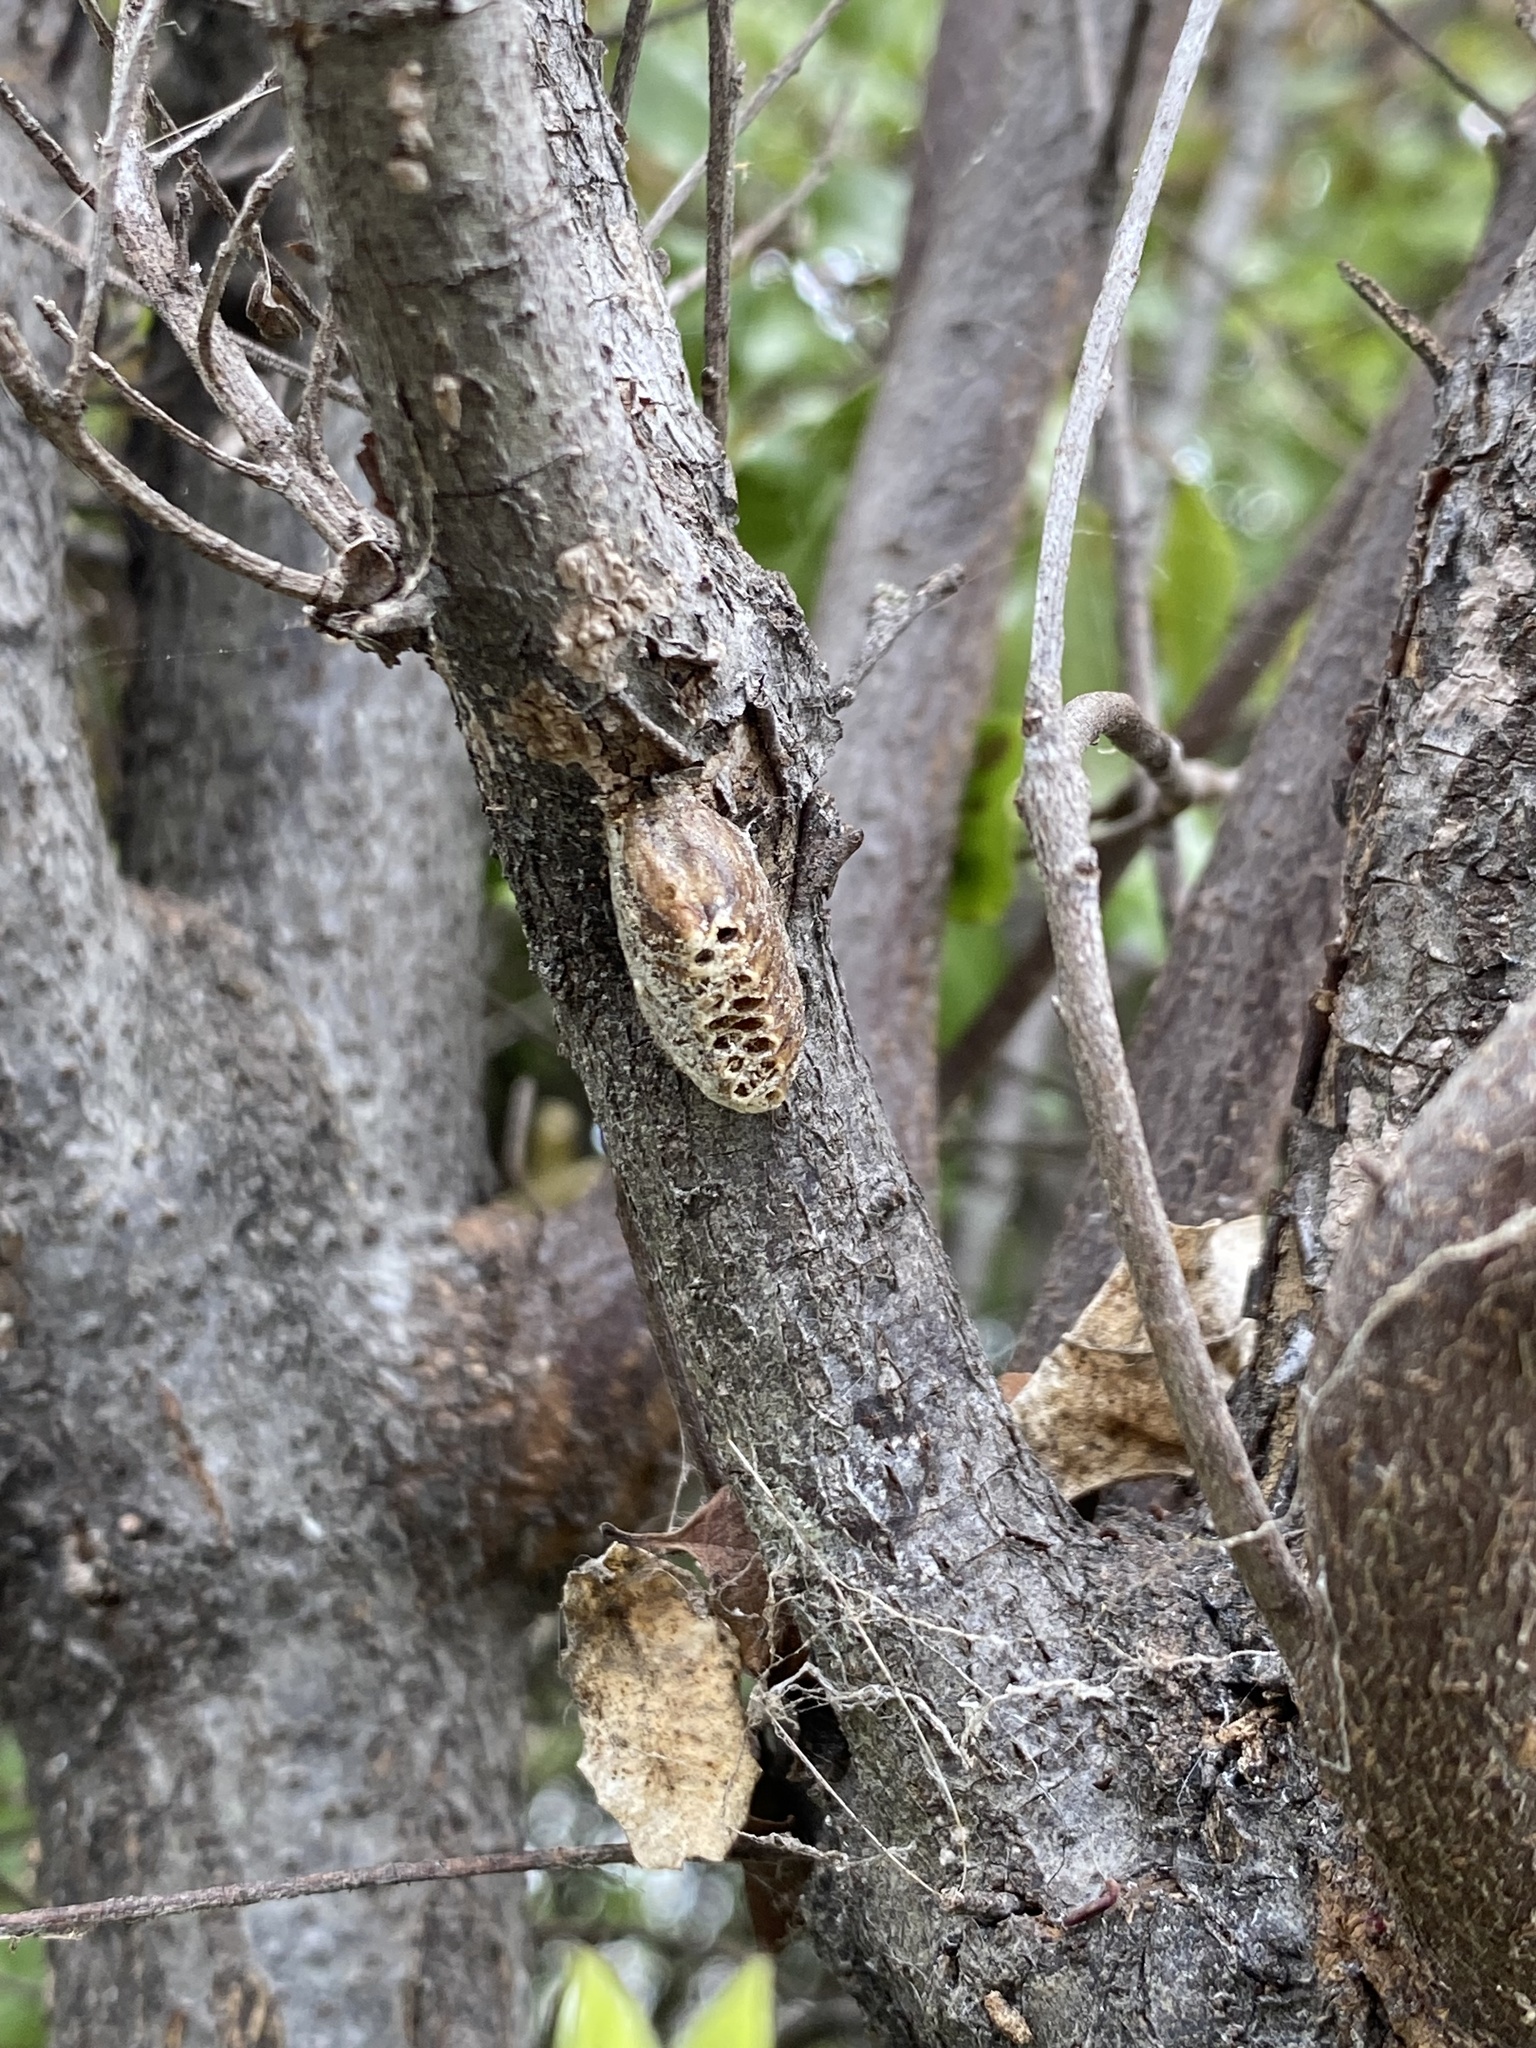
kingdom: Animalia
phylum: Arthropoda
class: Insecta
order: Mantodea
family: Mantidae
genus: Orthodera
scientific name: Orthodera novaezealandiae
